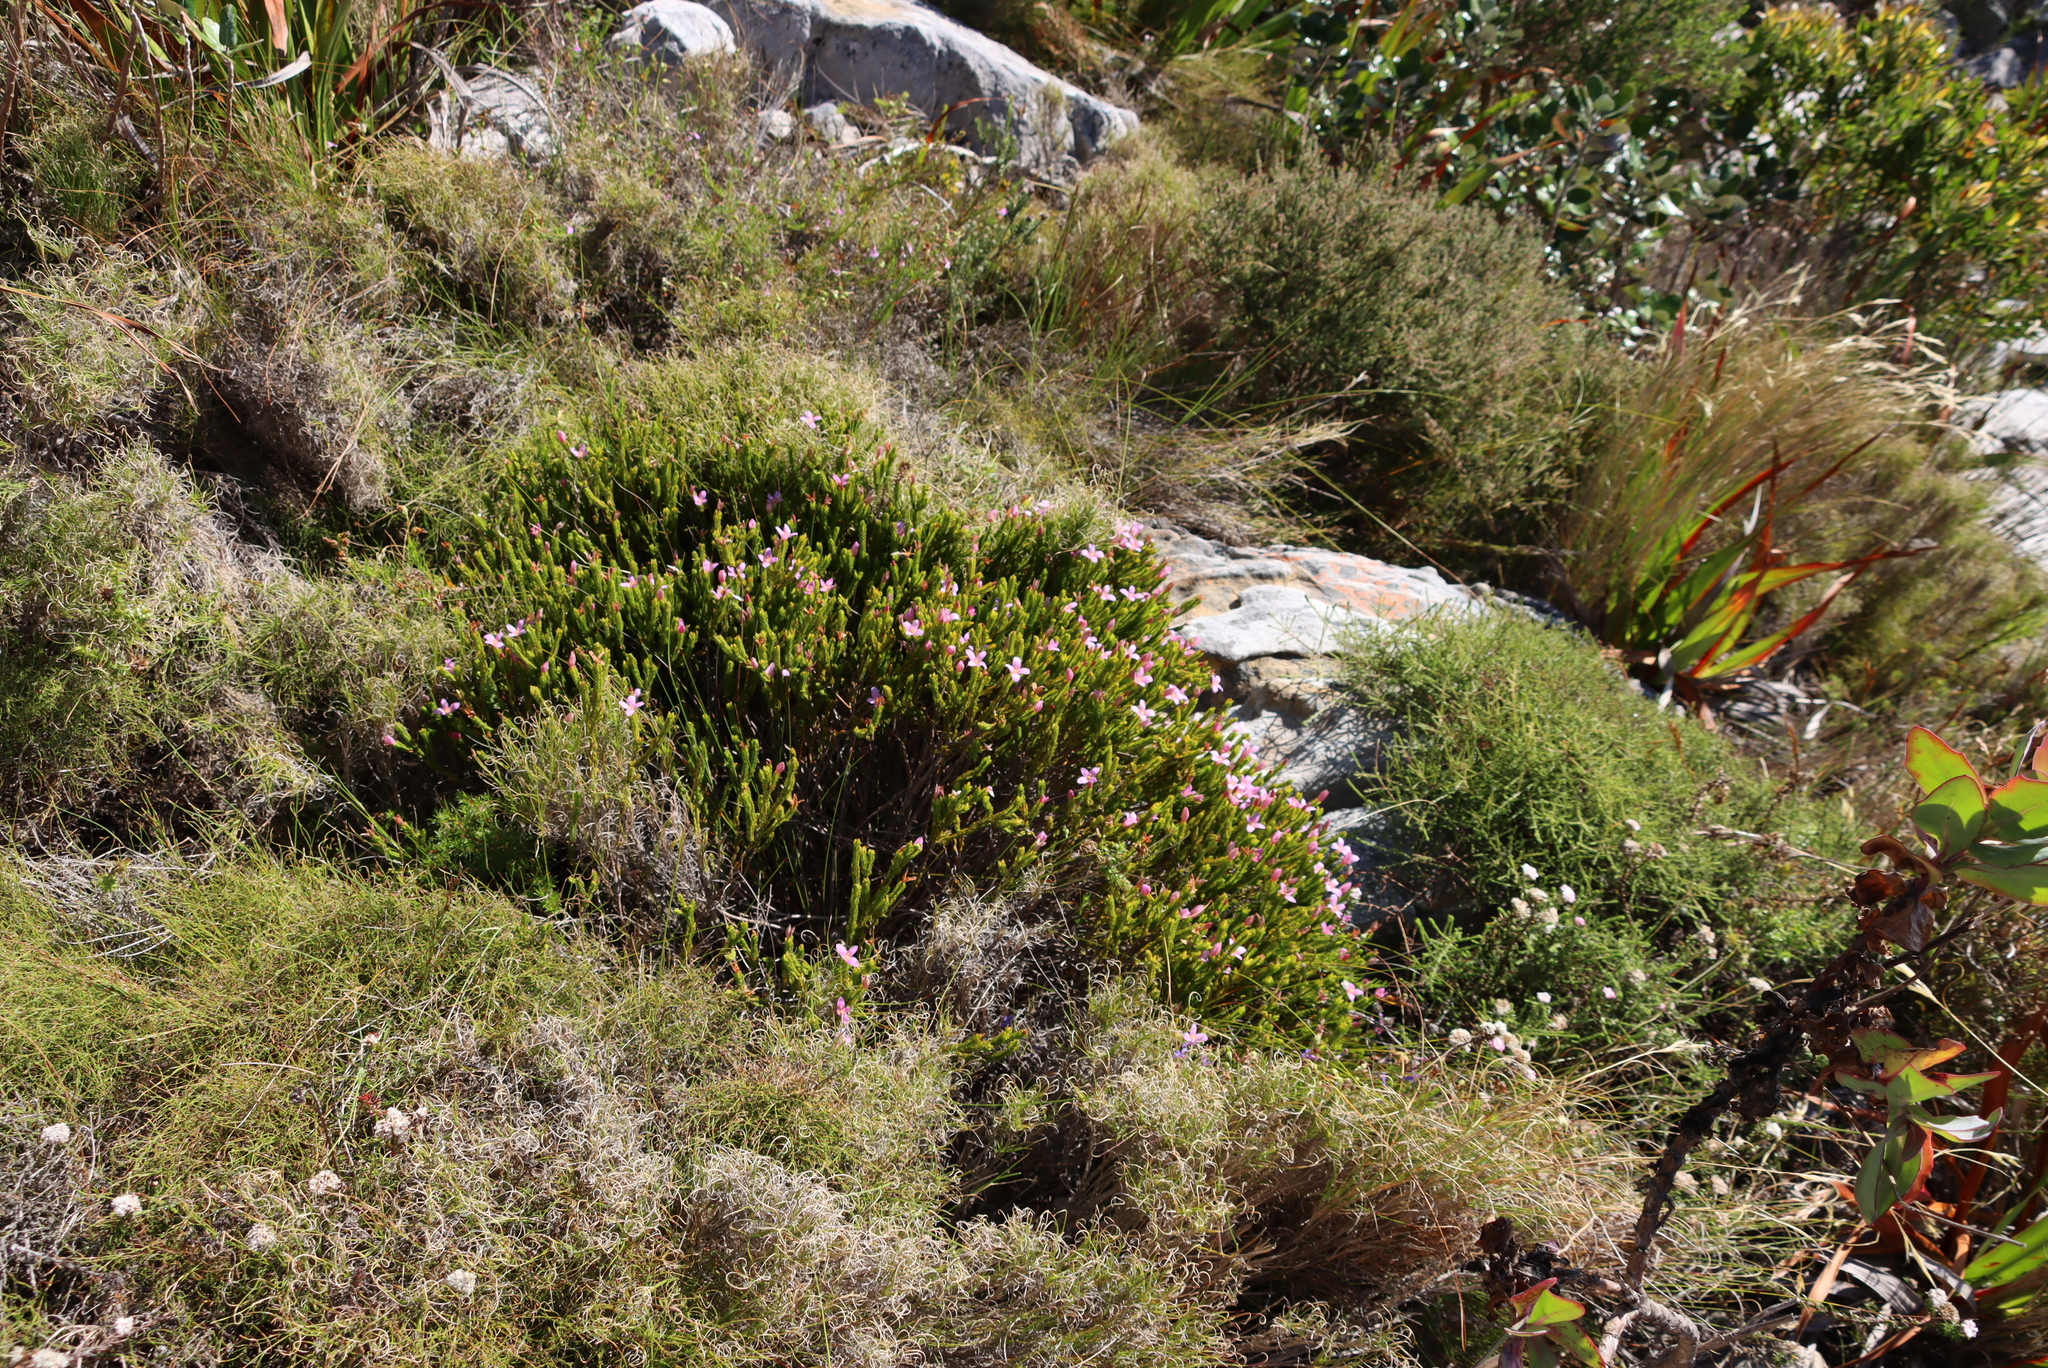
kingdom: Plantae
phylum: Tracheophyta
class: Magnoliopsida
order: Malvales
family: Thymelaeaceae
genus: Lachnaea
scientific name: Lachnaea grandiflora
